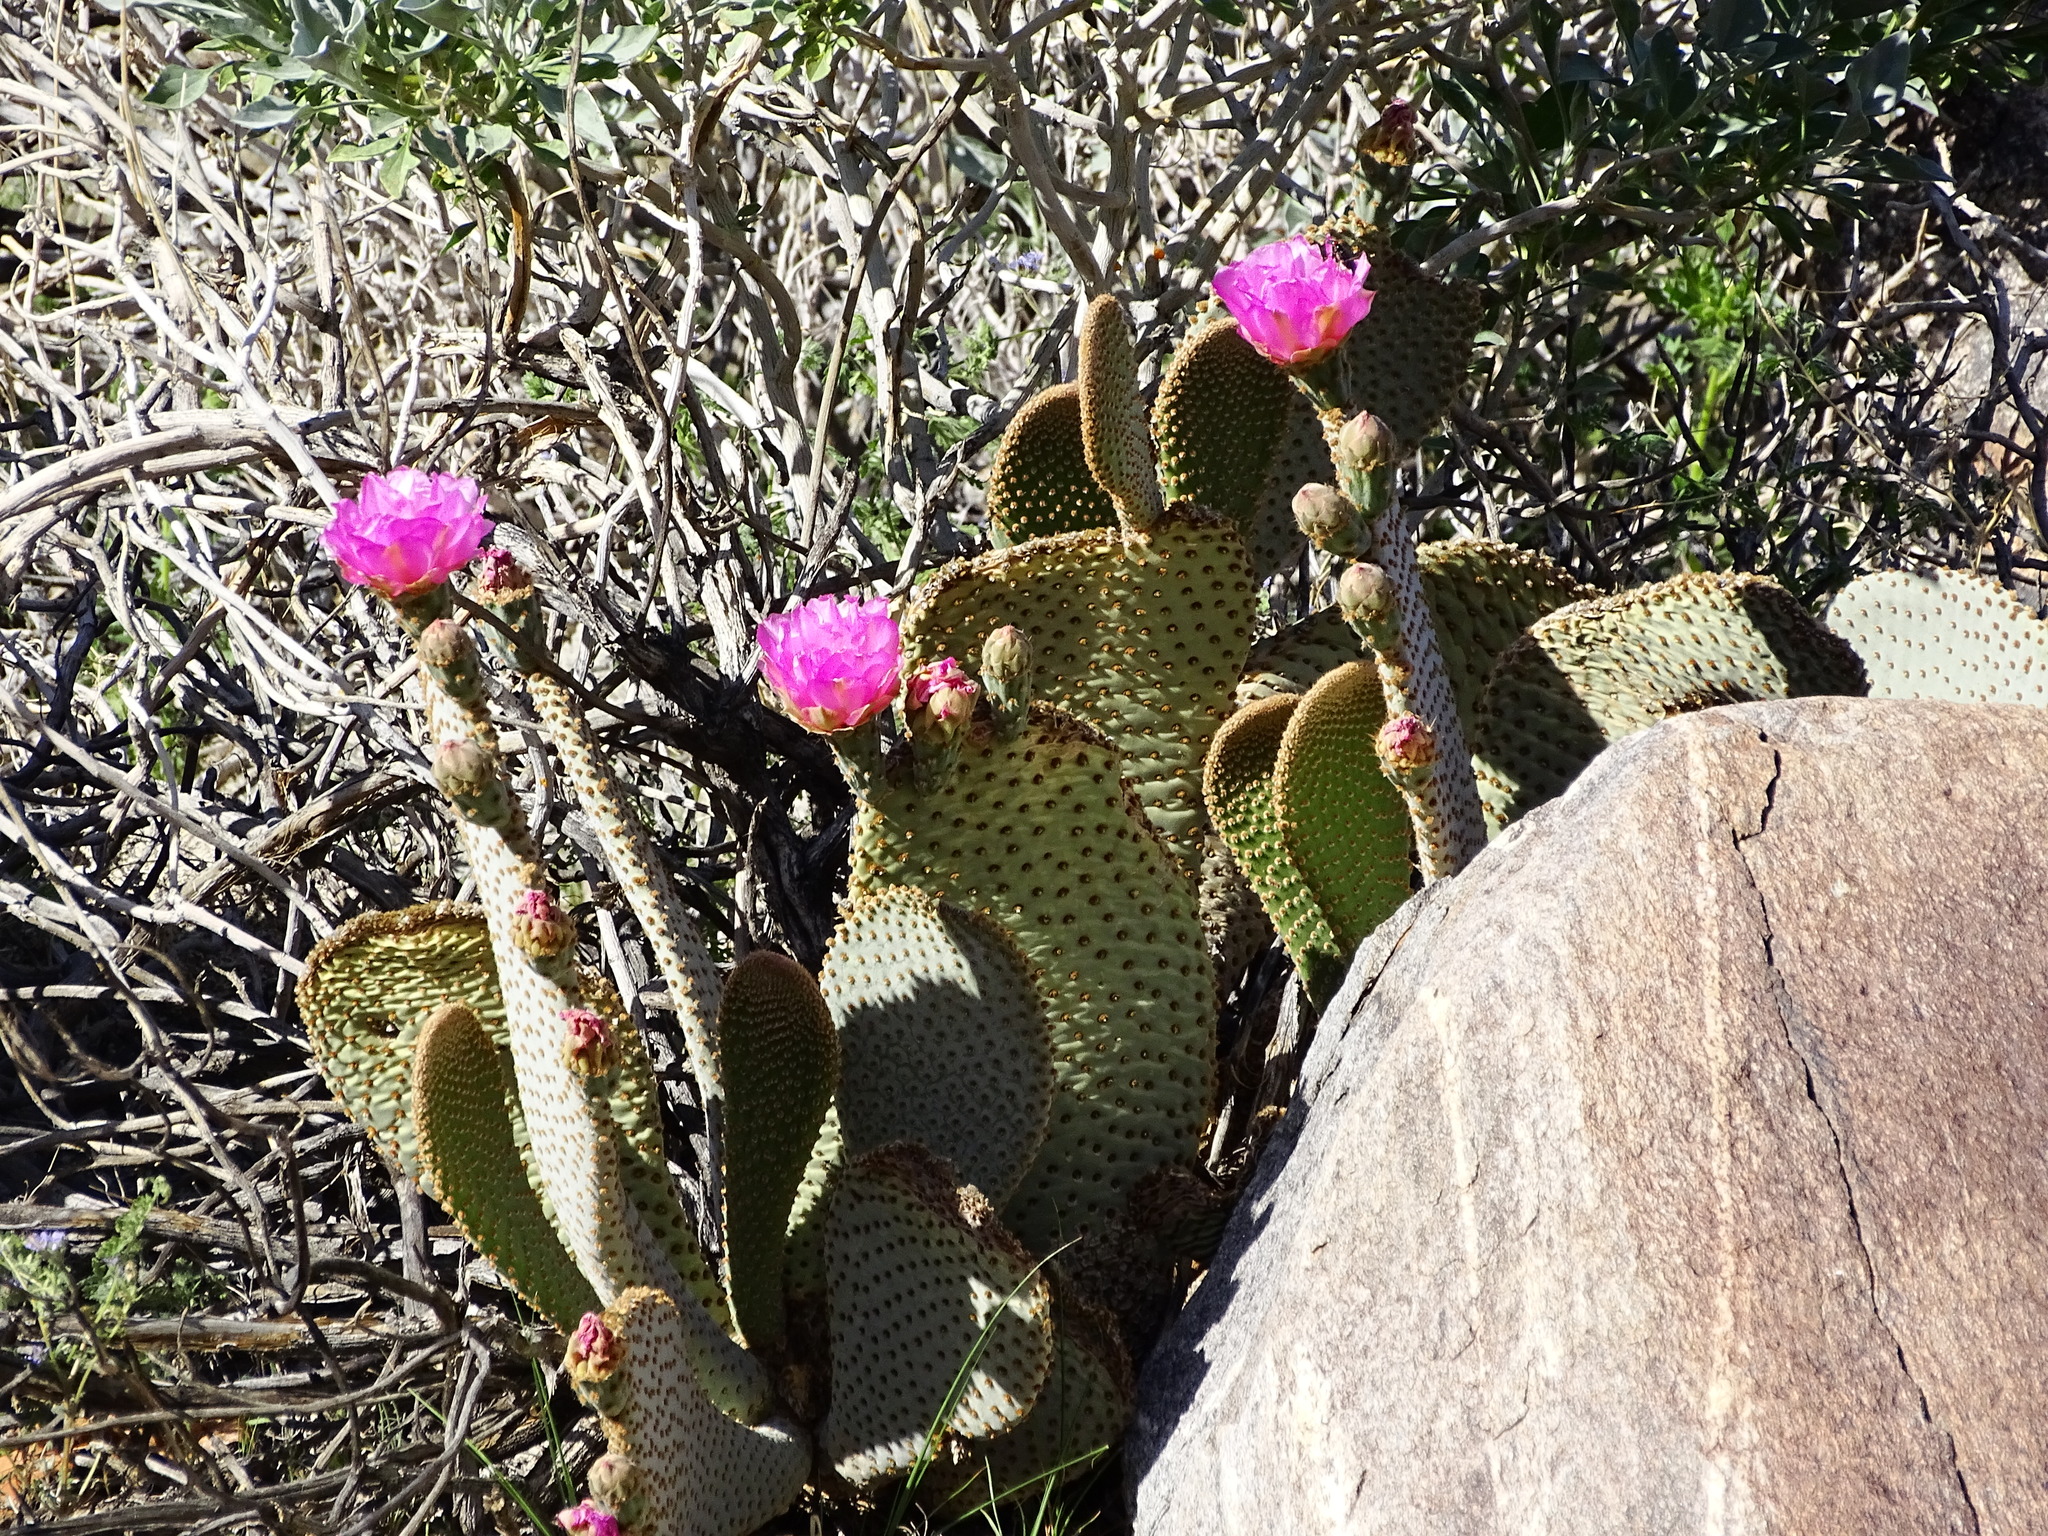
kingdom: Plantae
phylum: Tracheophyta
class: Magnoliopsida
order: Caryophyllales
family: Cactaceae
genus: Opuntia
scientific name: Opuntia basilaris
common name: Beavertail prickly-pear
